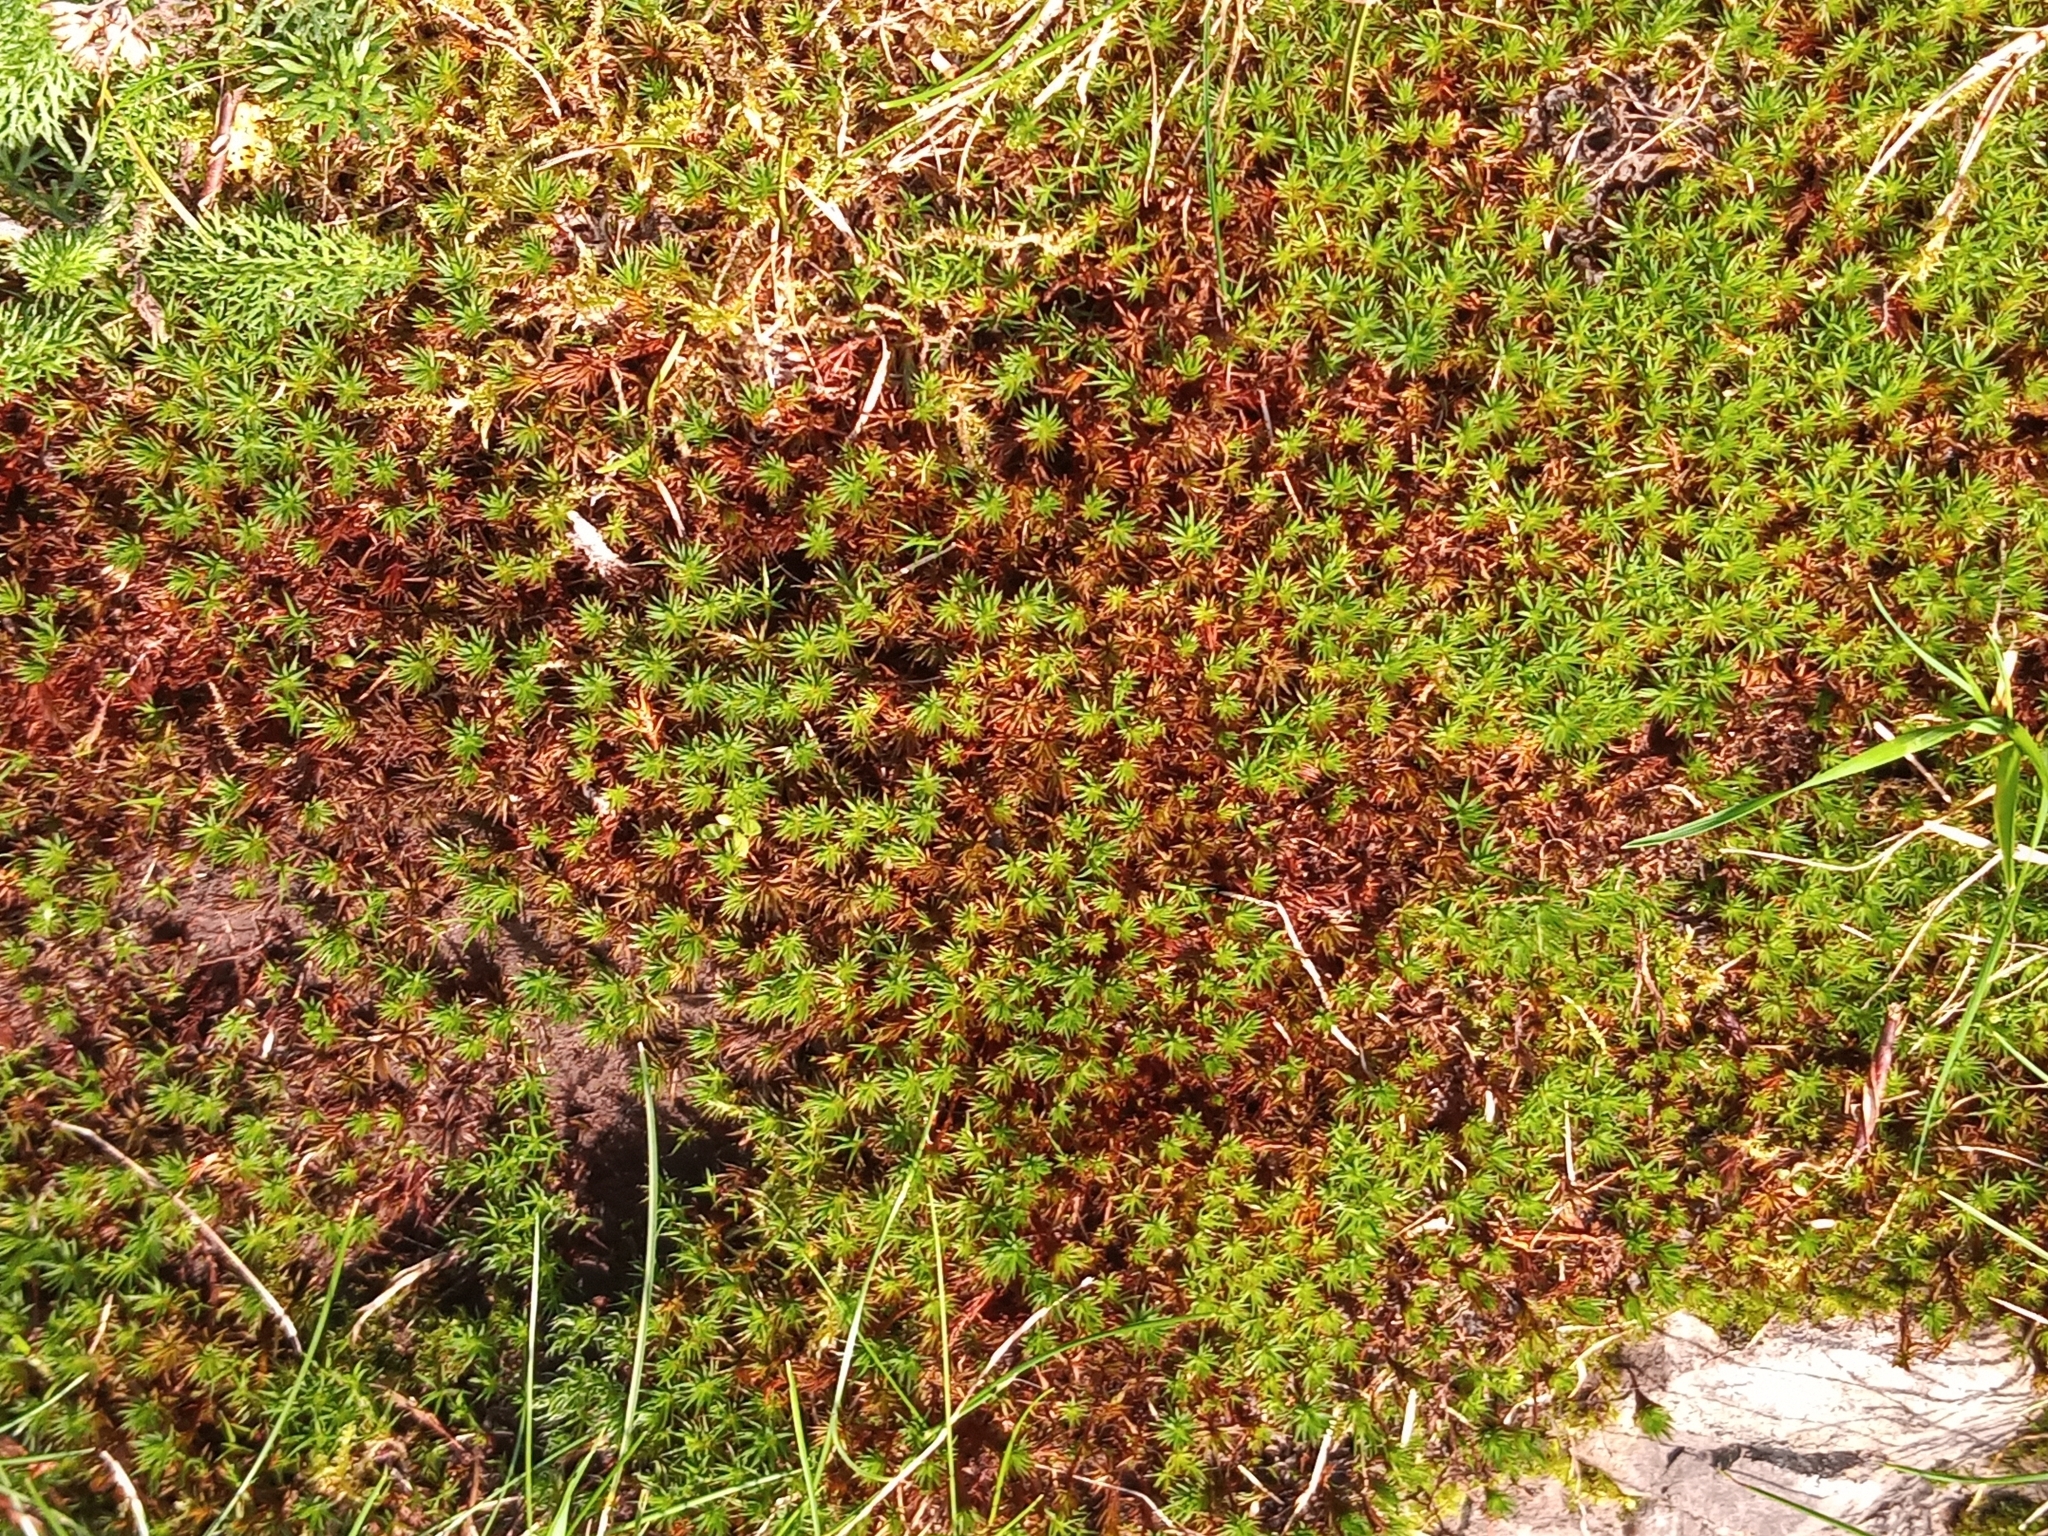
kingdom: Plantae
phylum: Bryophyta
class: Polytrichopsida
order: Polytrichales
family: Polytrichaceae
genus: Polytrichum
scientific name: Polytrichum juniperinum
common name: Juniper haircap moss
